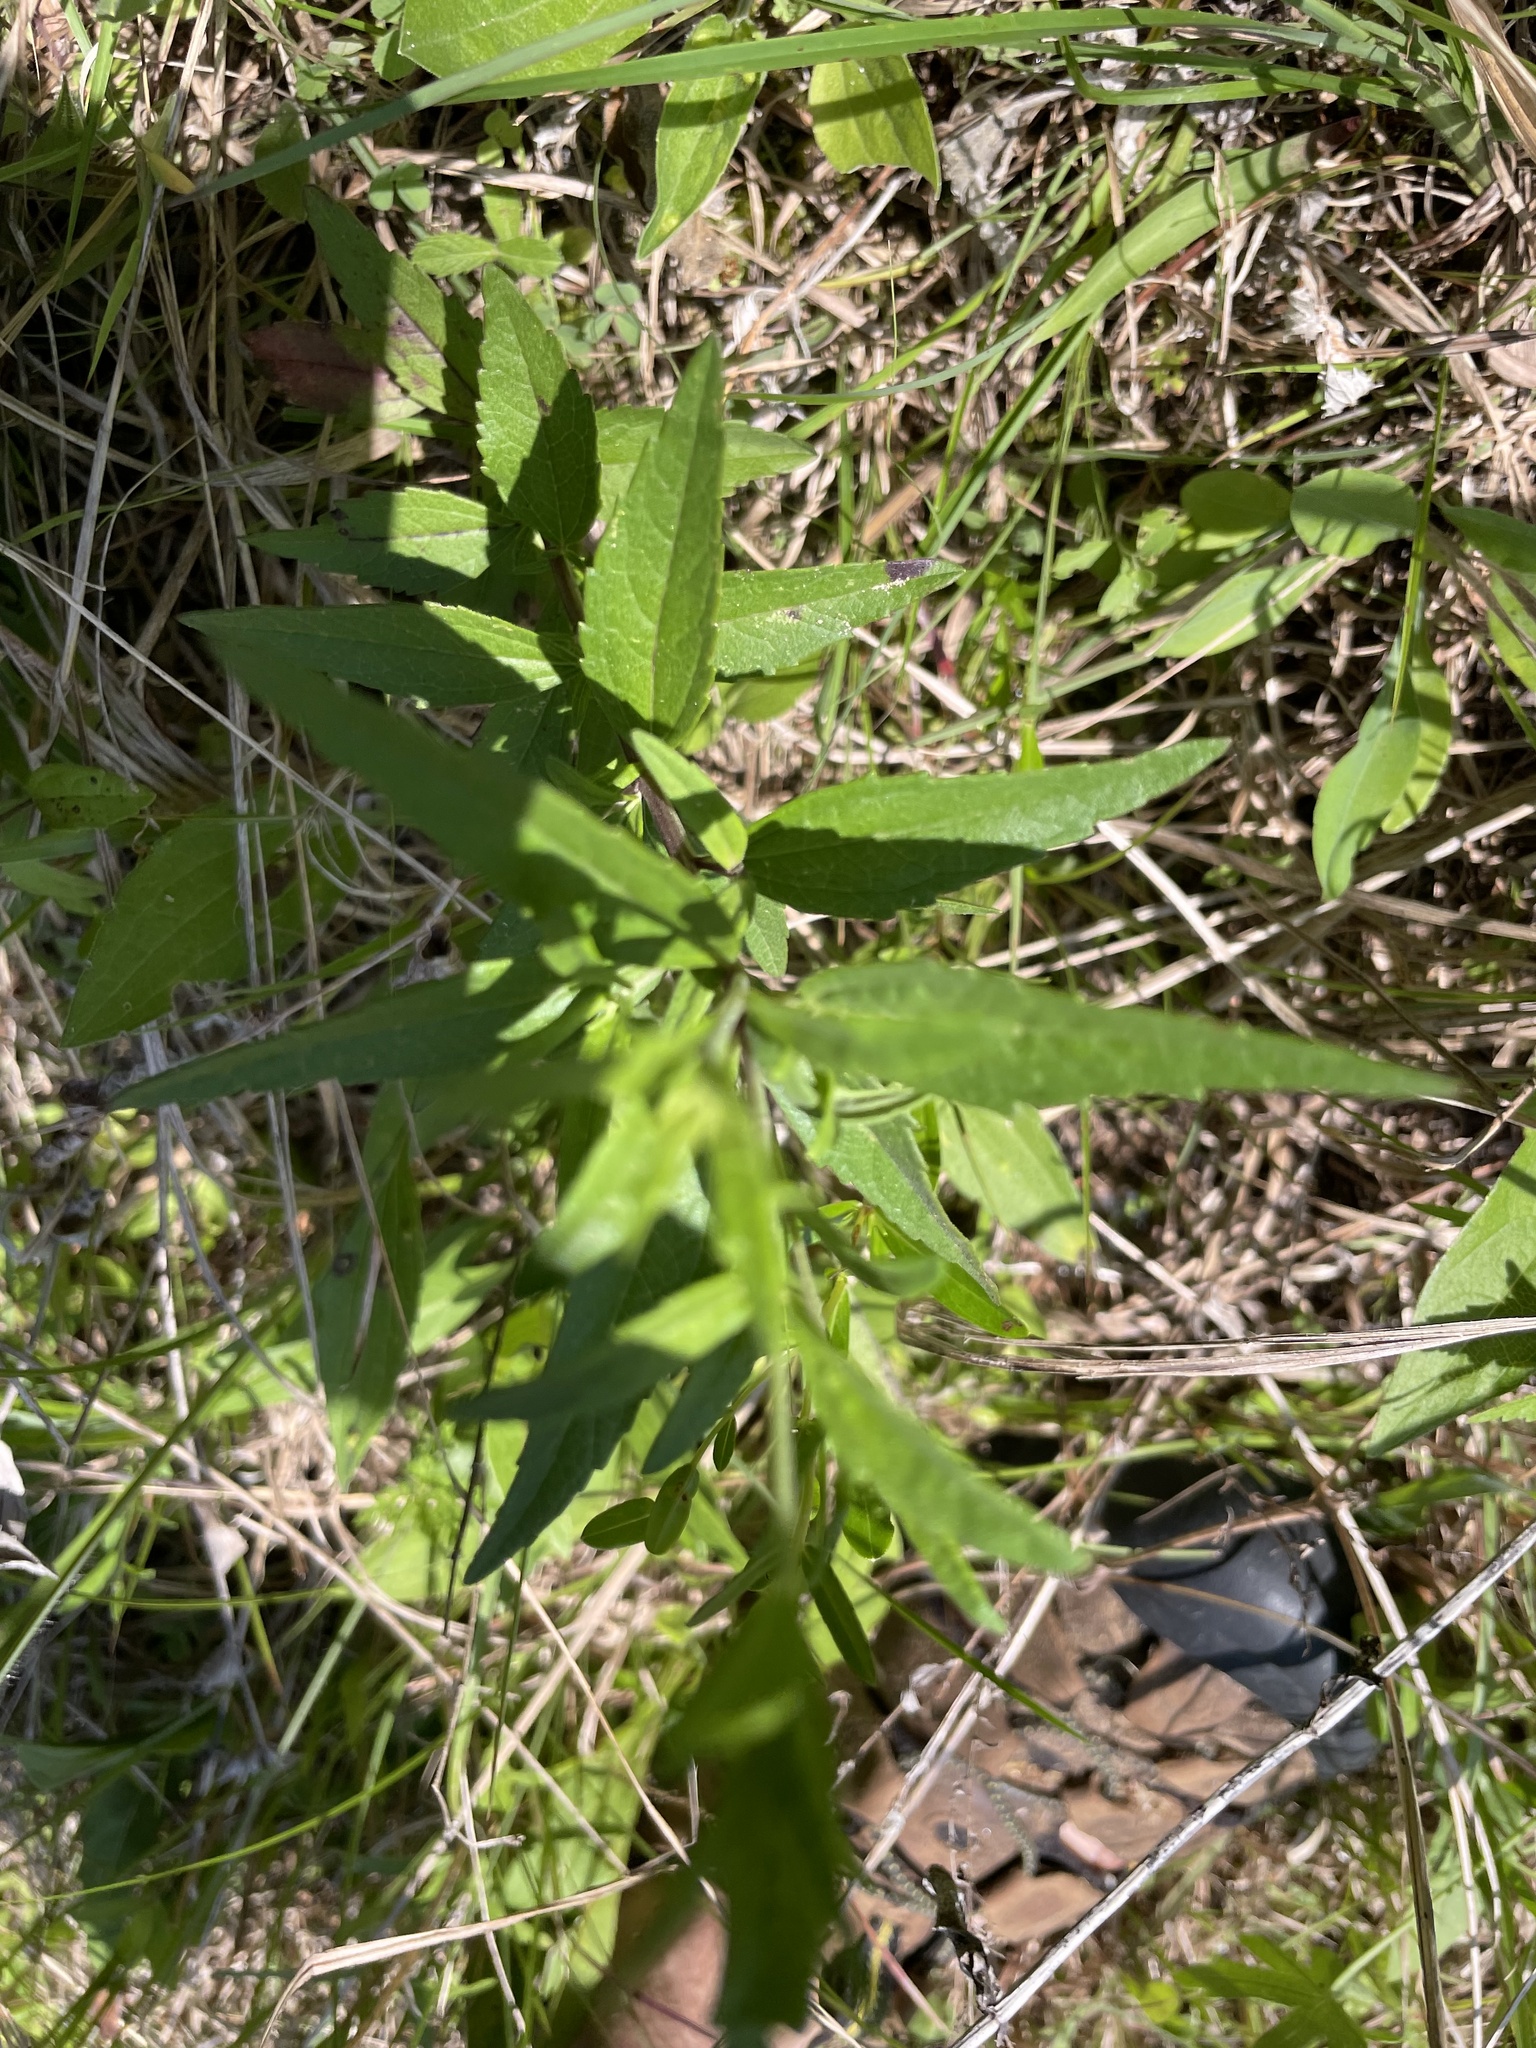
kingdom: Plantae
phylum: Tracheophyta
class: Magnoliopsida
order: Asterales
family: Asteraceae
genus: Brickellia
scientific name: Brickellia eupatorioides
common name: False boneset
